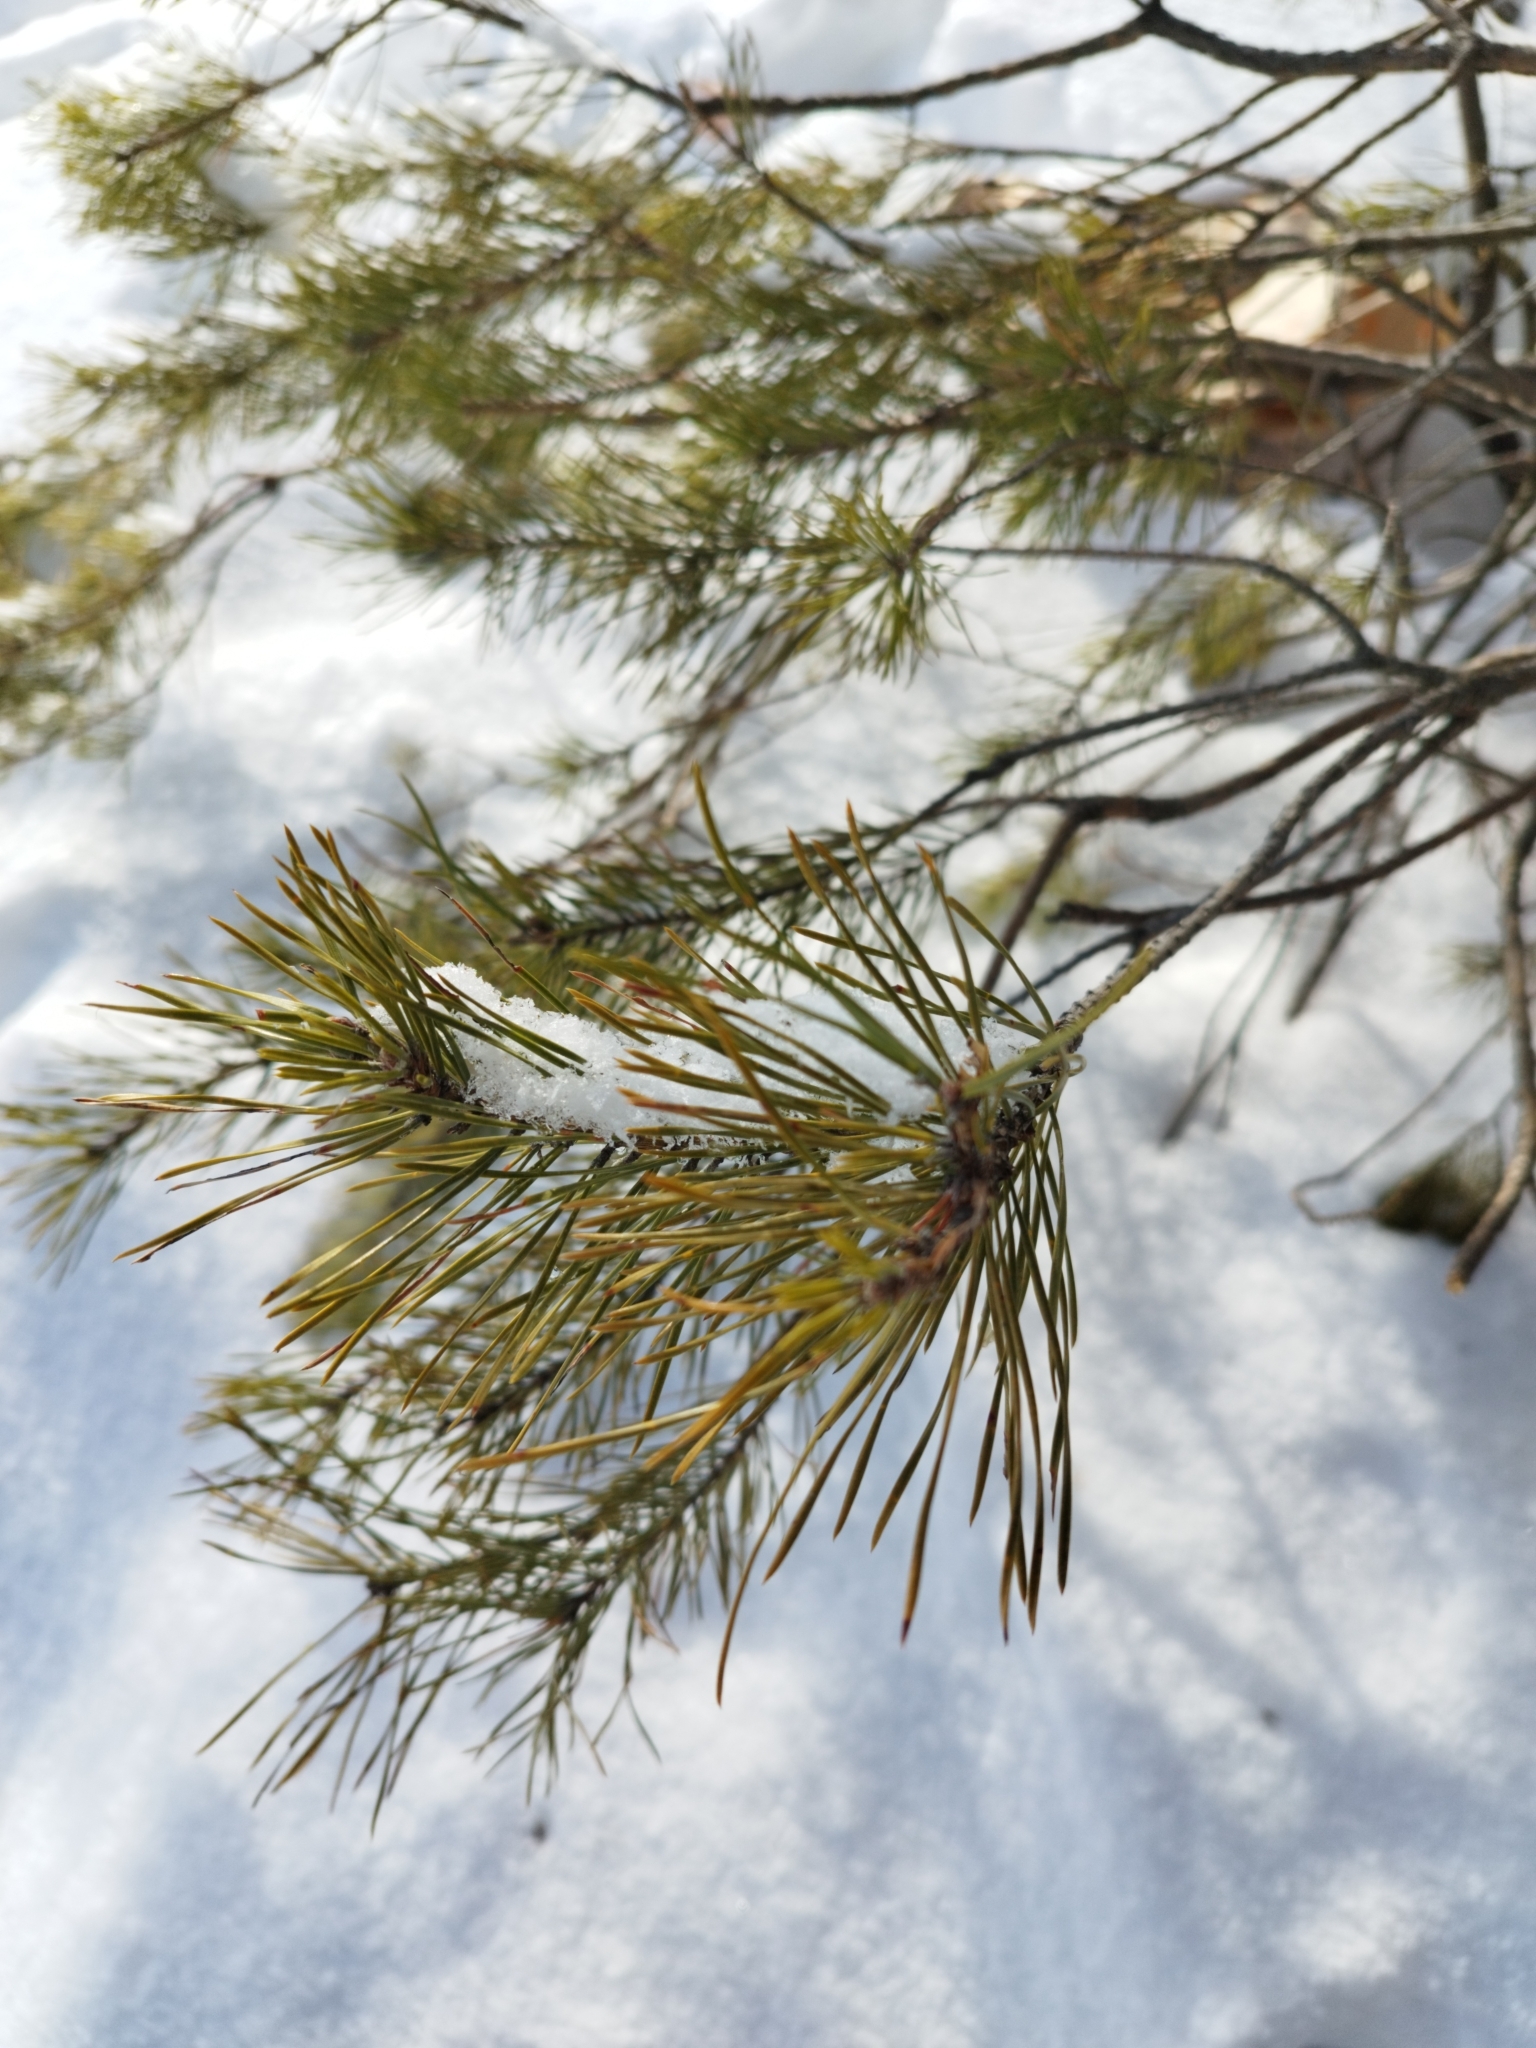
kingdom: Plantae
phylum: Tracheophyta
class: Pinopsida
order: Pinales
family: Pinaceae
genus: Pinus
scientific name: Pinus sylvestris
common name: Scots pine
